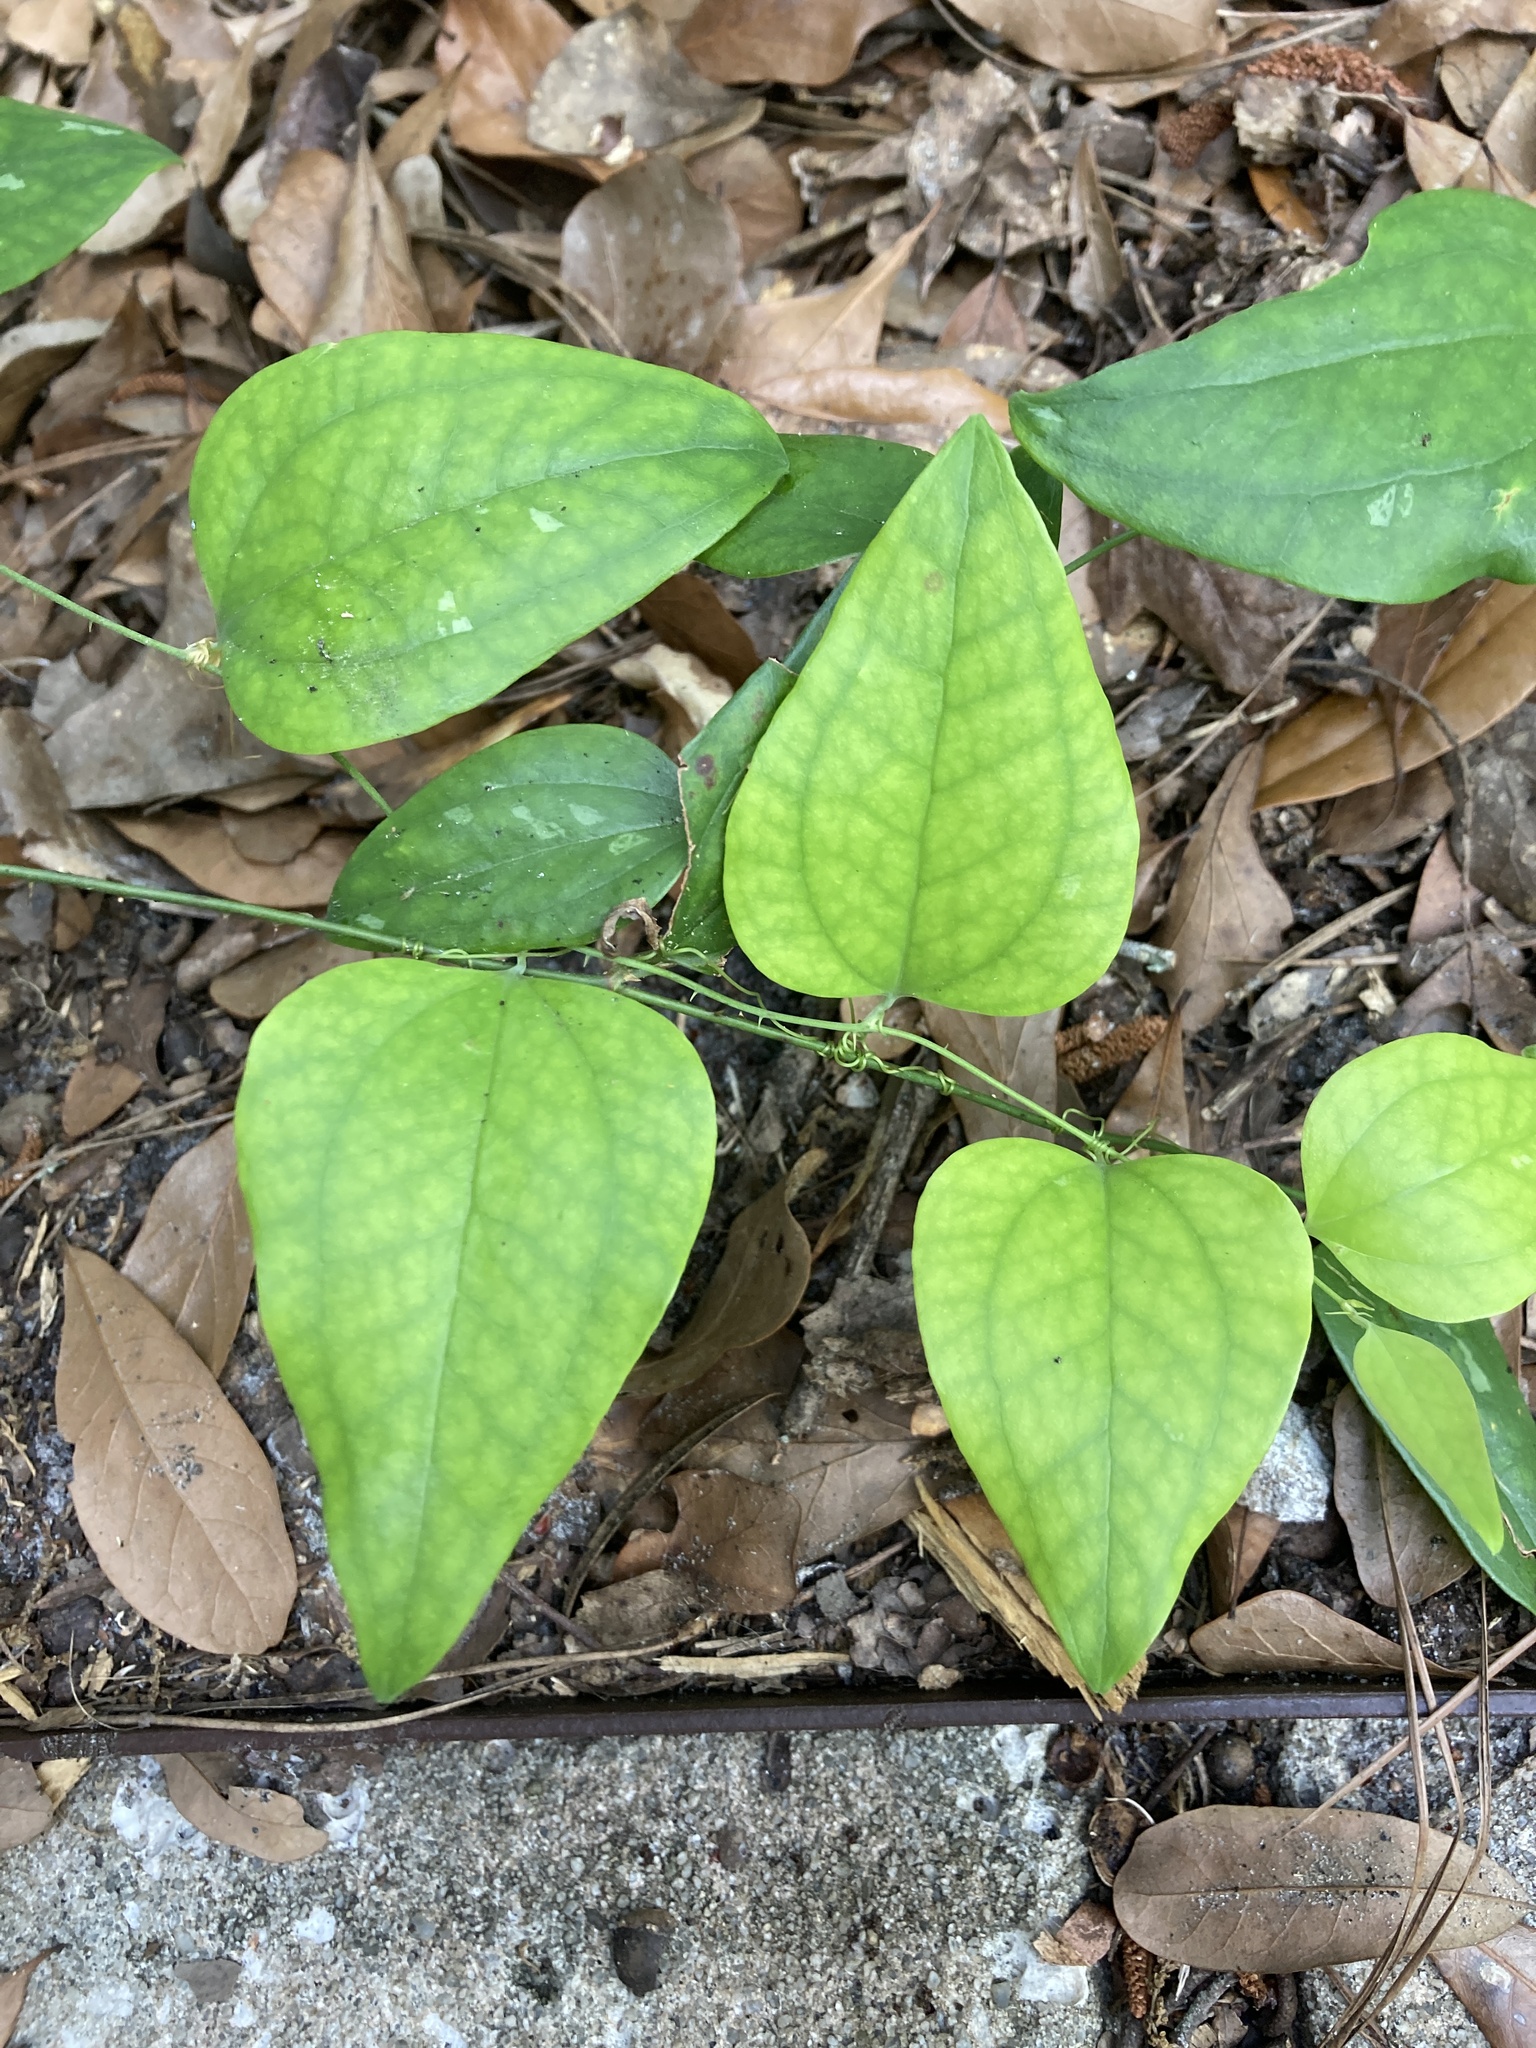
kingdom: Plantae
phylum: Tracheophyta
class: Liliopsida
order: Liliales
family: Smilacaceae
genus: Smilax
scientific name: Smilax glauca
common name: Cat greenbrier
